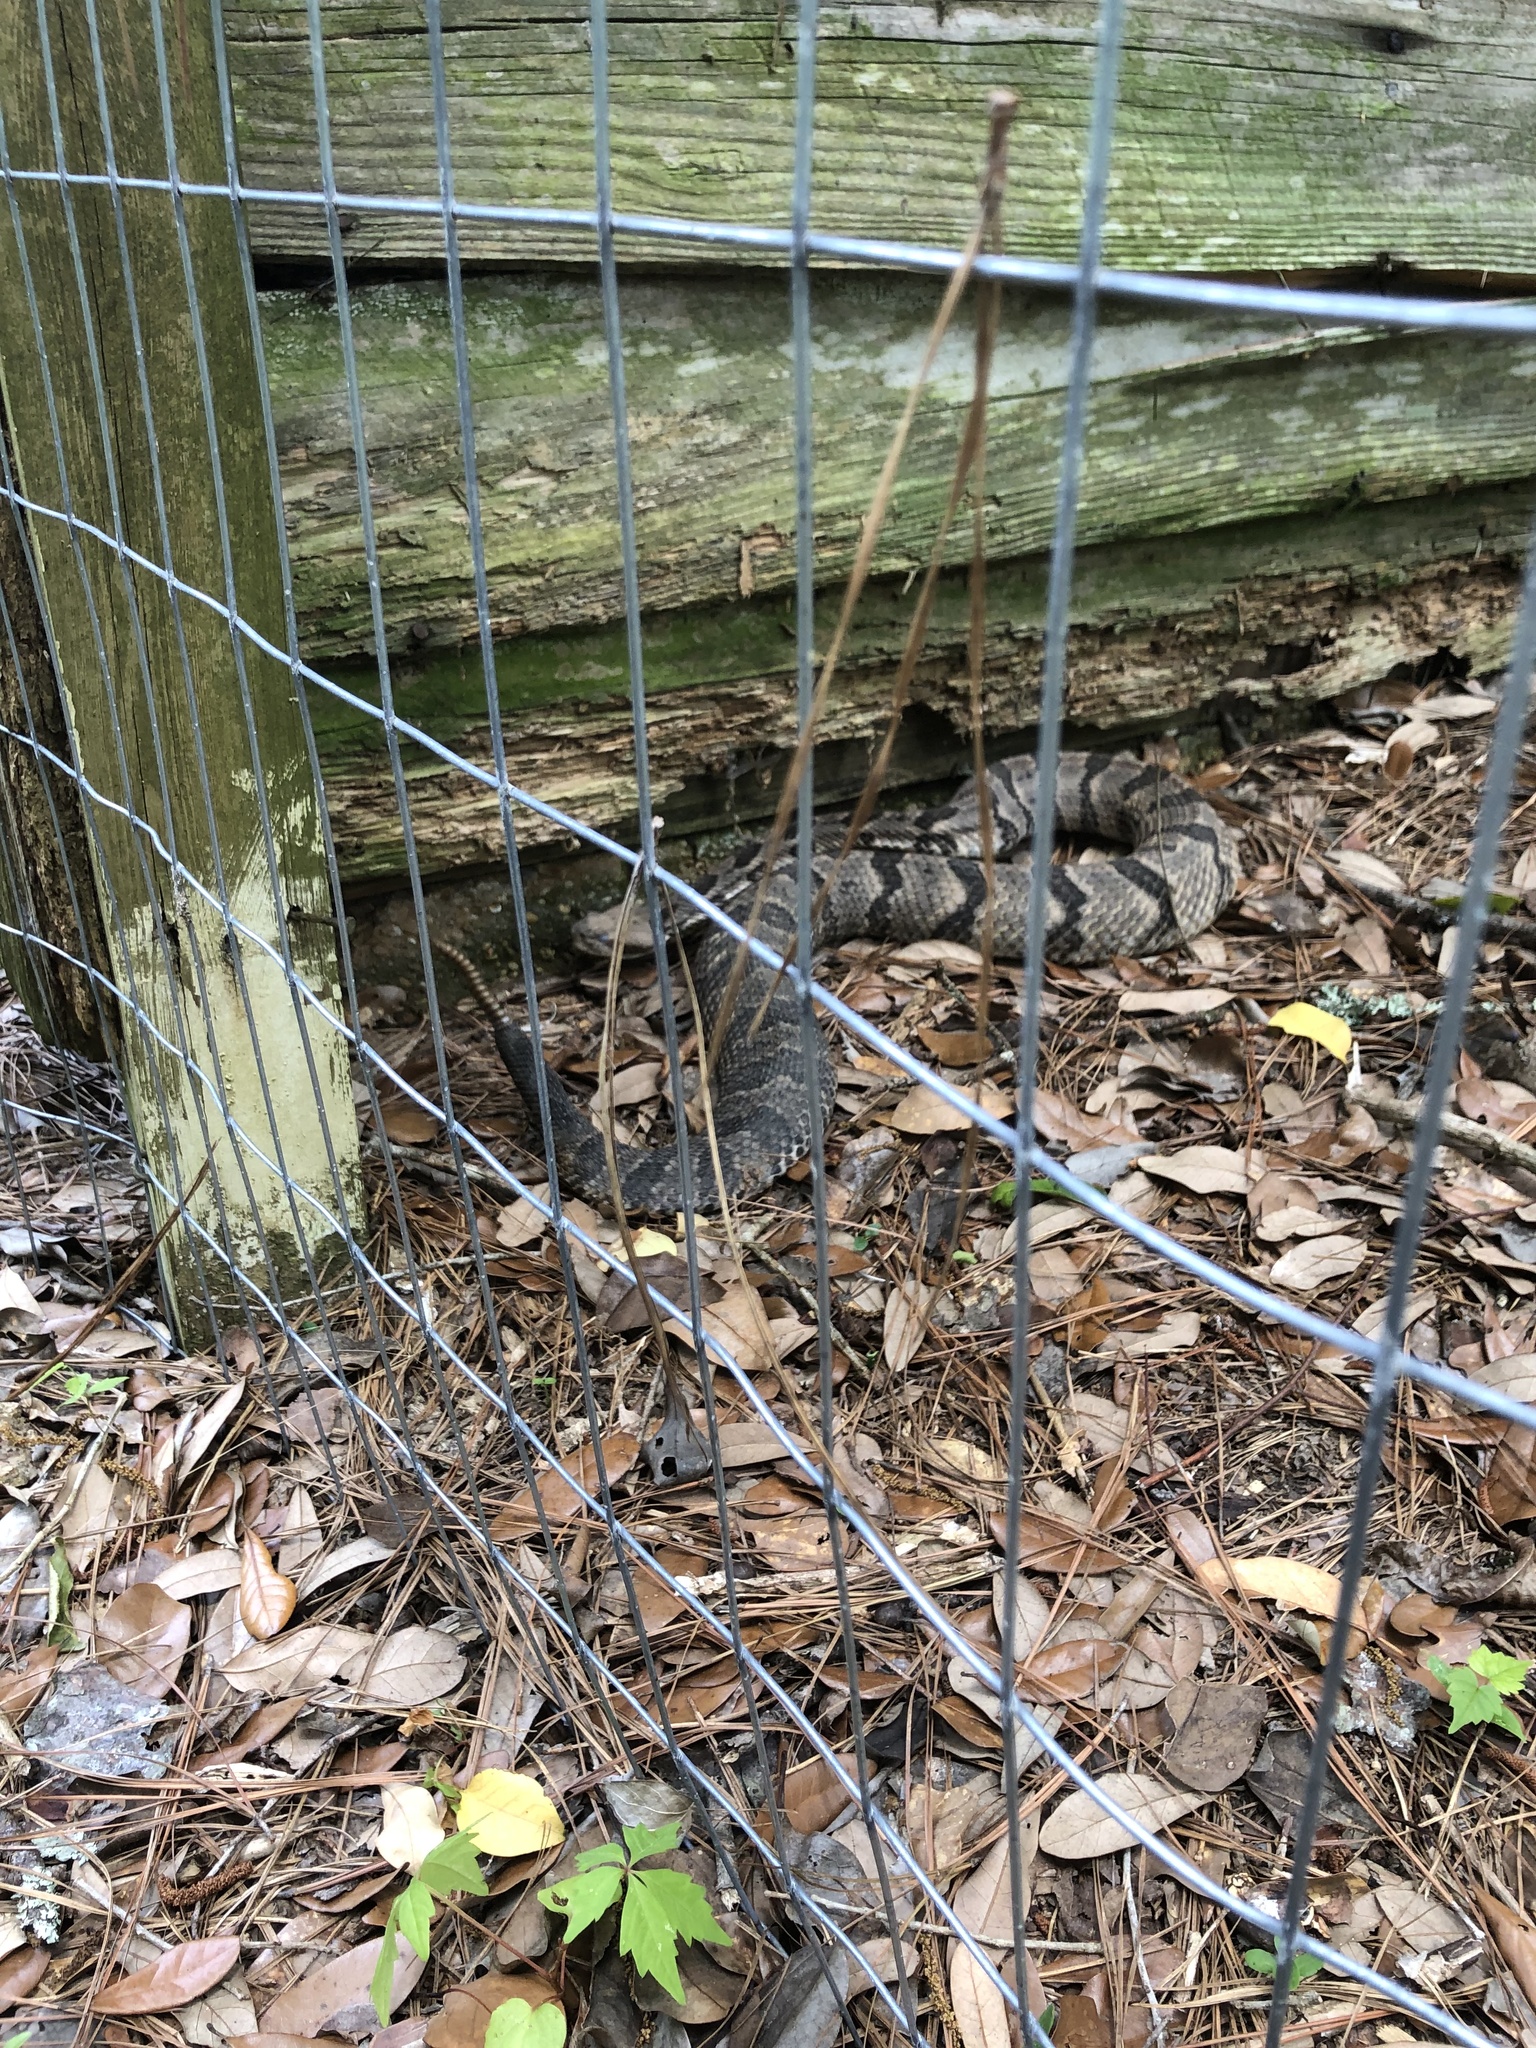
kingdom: Animalia
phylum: Chordata
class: Squamata
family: Viperidae
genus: Crotalus
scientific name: Crotalus horridus
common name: Timber rattlesnake
